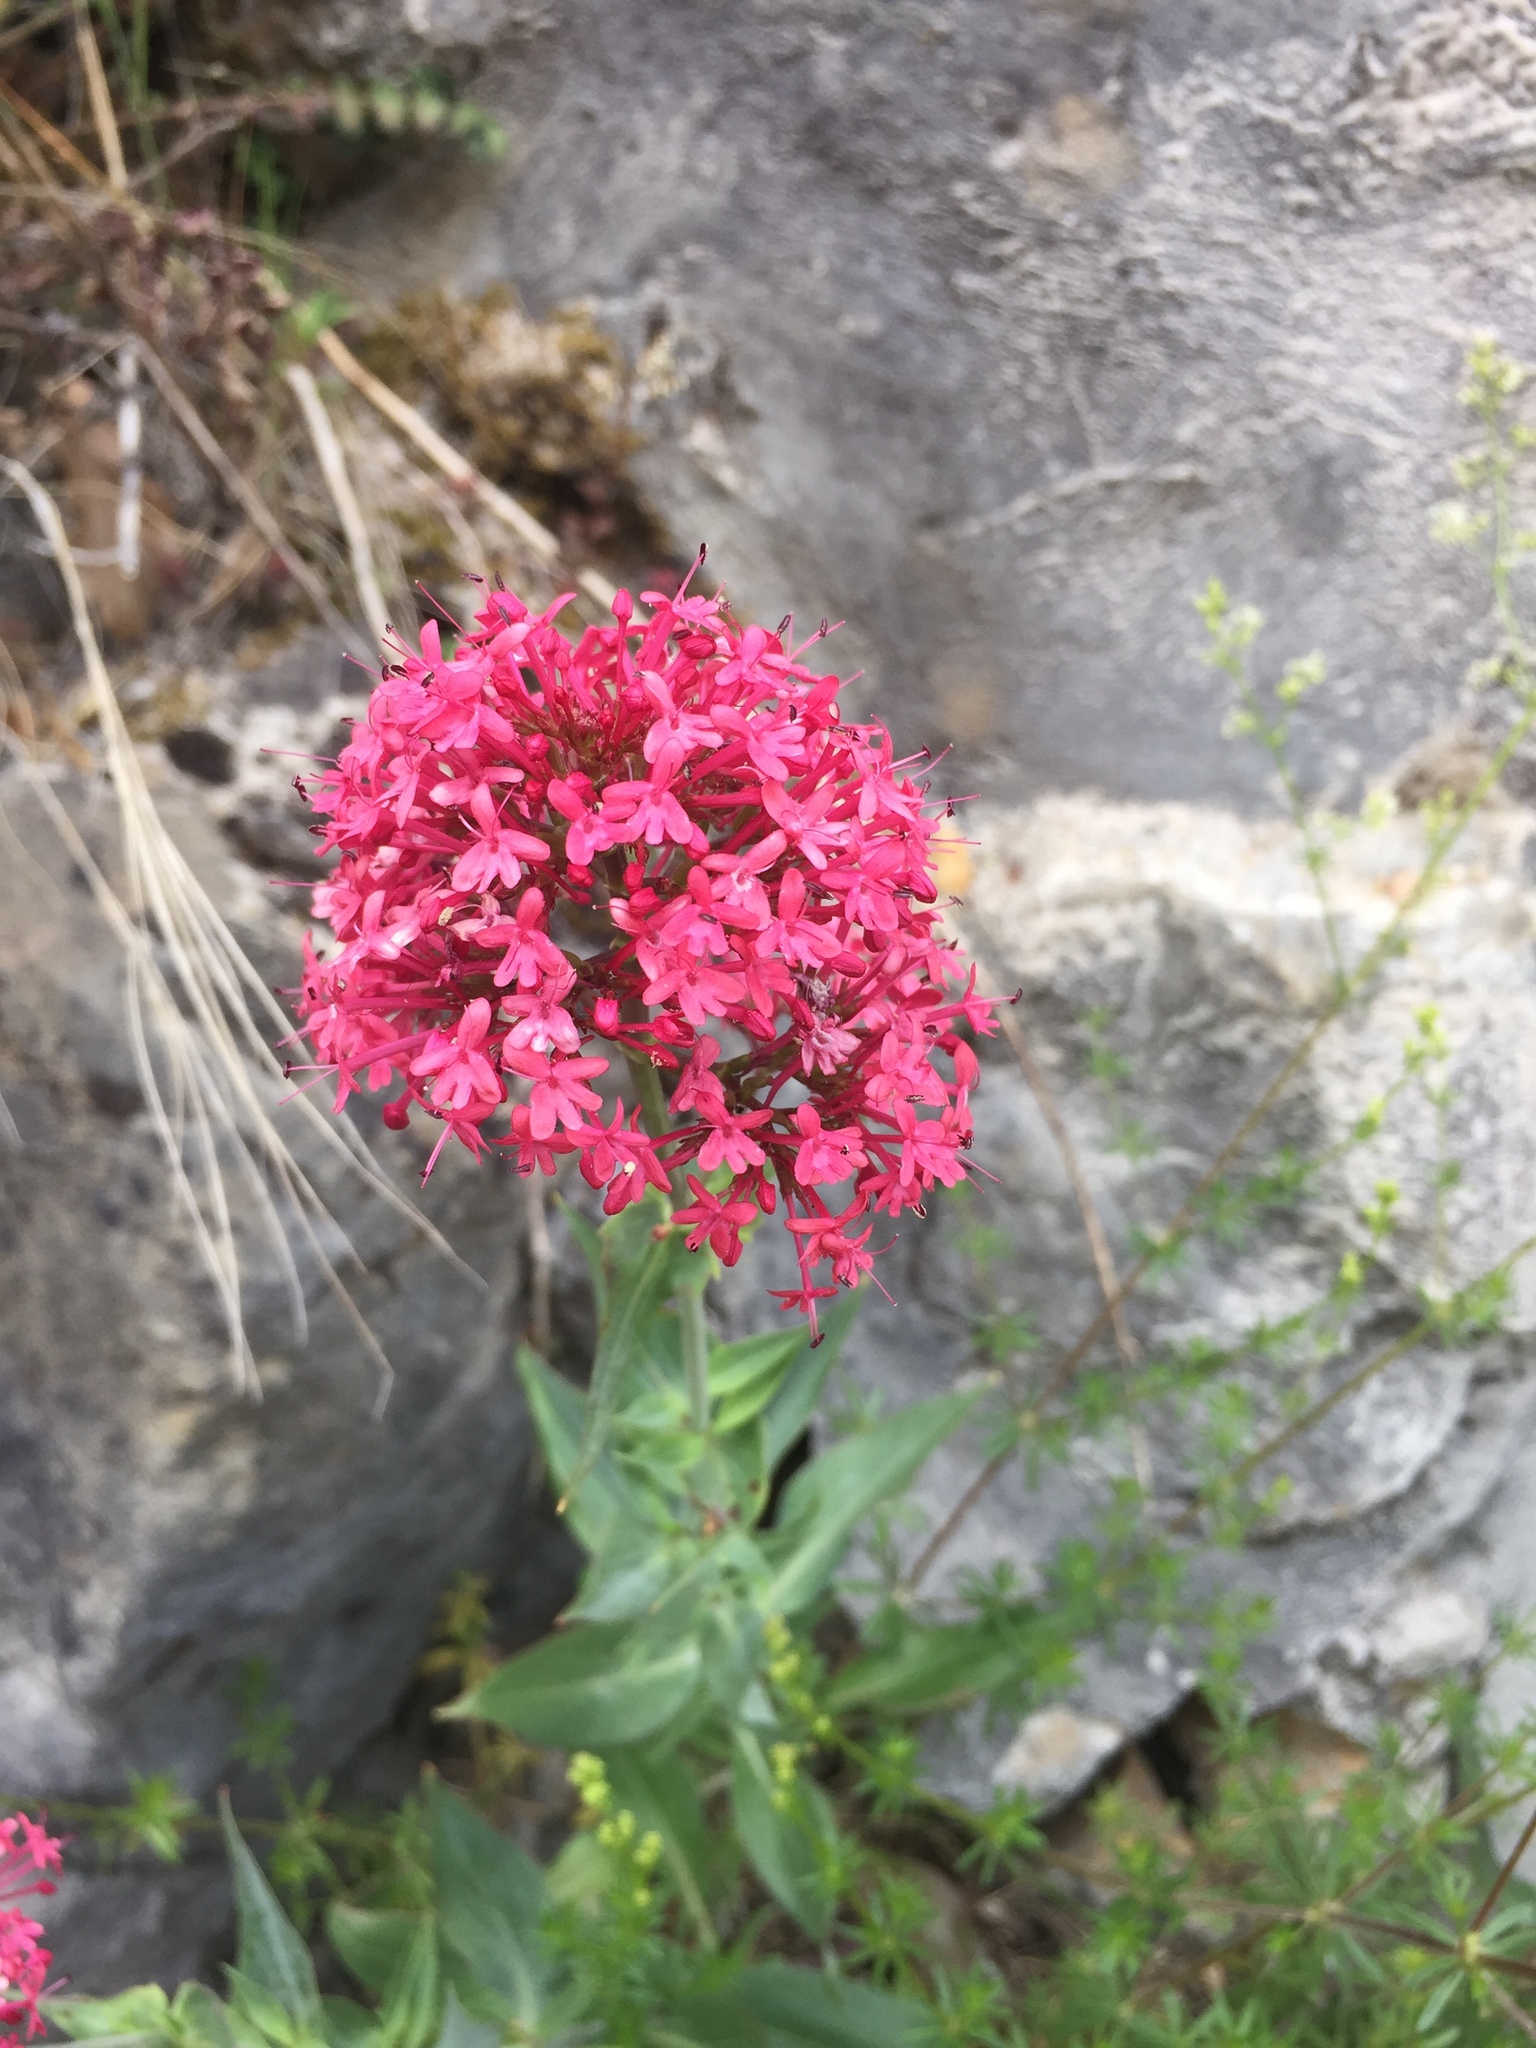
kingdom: Plantae
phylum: Tracheophyta
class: Magnoliopsida
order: Dipsacales
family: Caprifoliaceae
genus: Centranthus
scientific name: Centranthus ruber
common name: Red valerian
